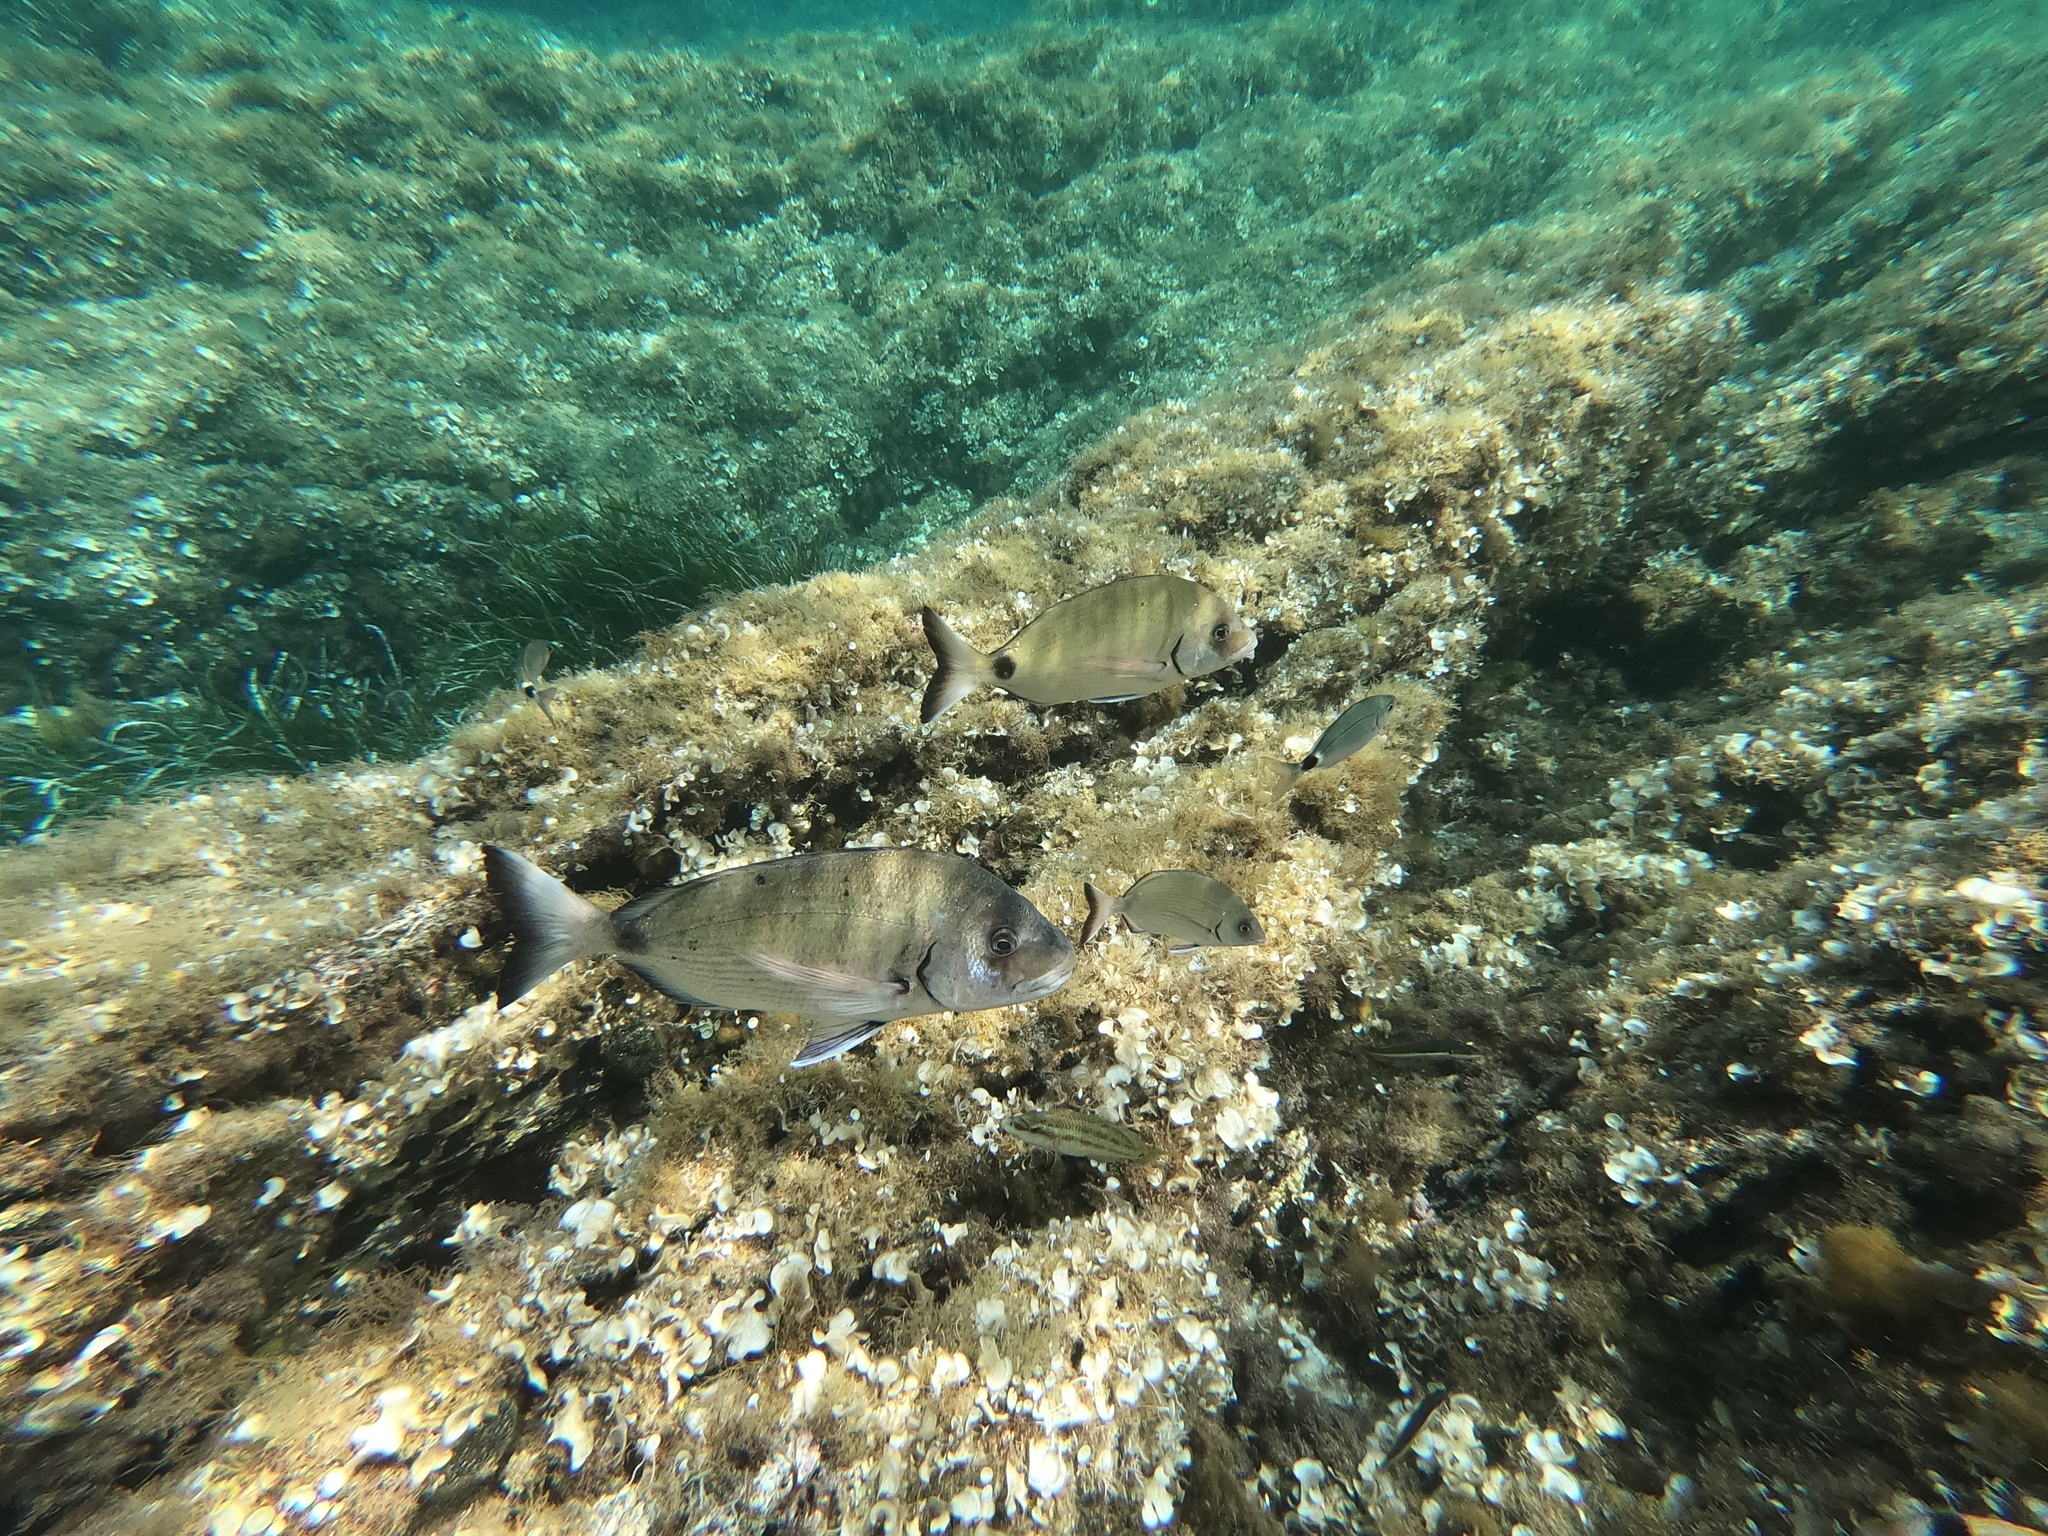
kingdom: Animalia
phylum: Chordata
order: Perciformes
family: Sparidae
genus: Diplodus
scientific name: Diplodus sargus
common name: White seabream
